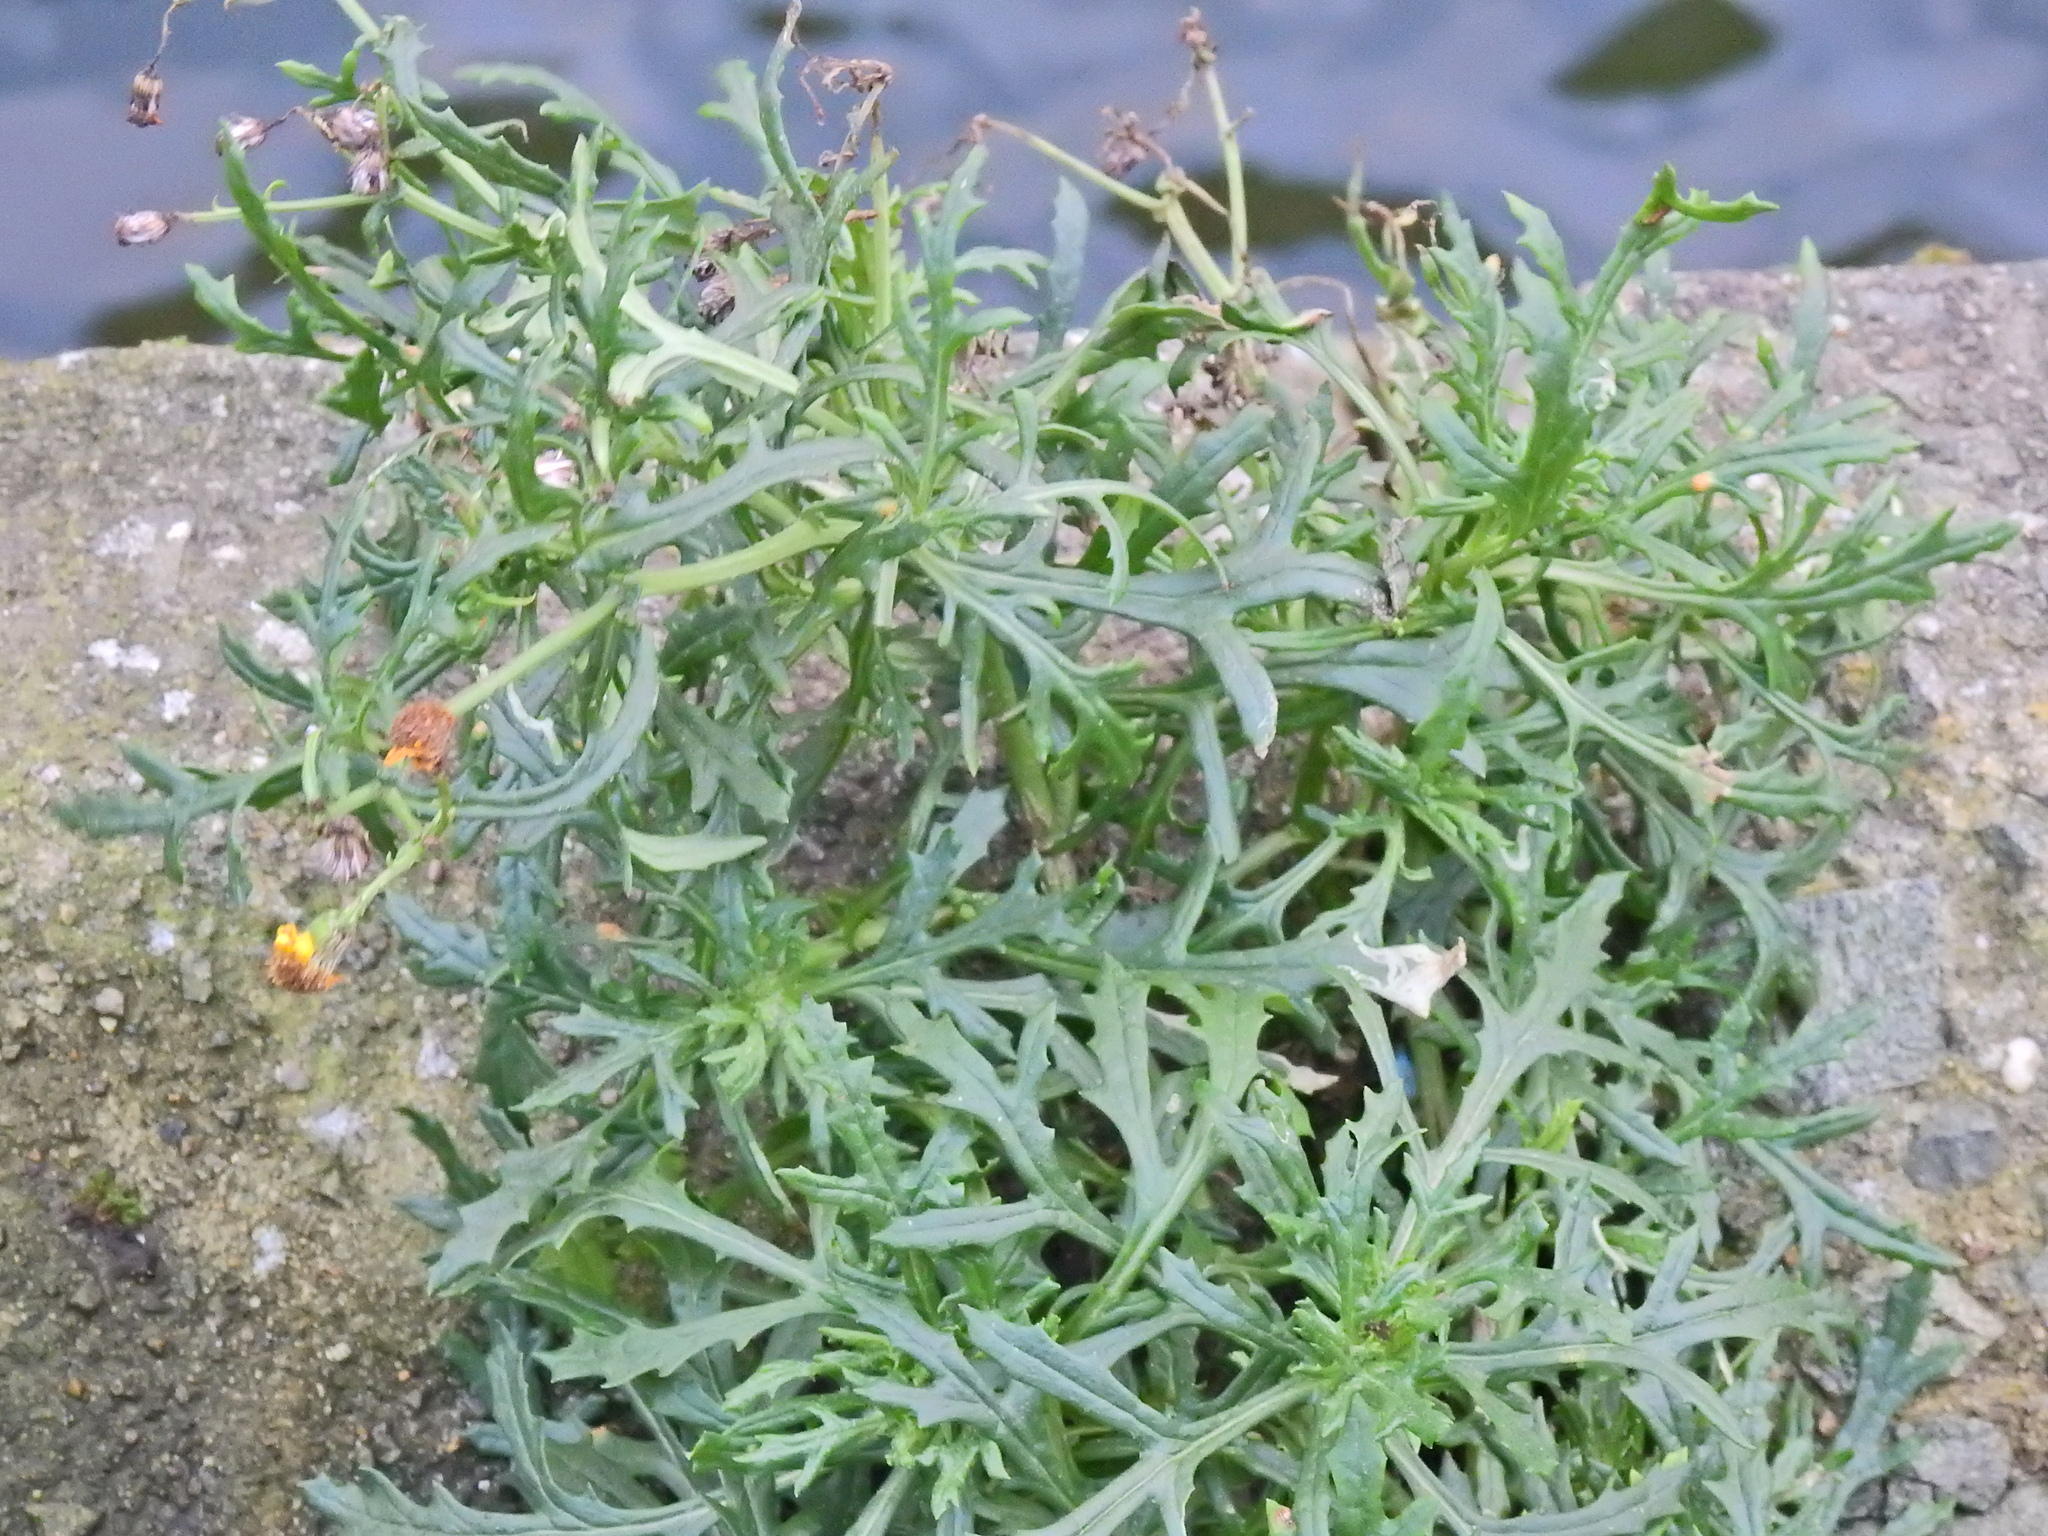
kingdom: Plantae
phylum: Tracheophyta
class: Magnoliopsida
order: Asterales
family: Asteraceae
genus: Senecio
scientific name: Senecio squalidus
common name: Oxford ragwort
